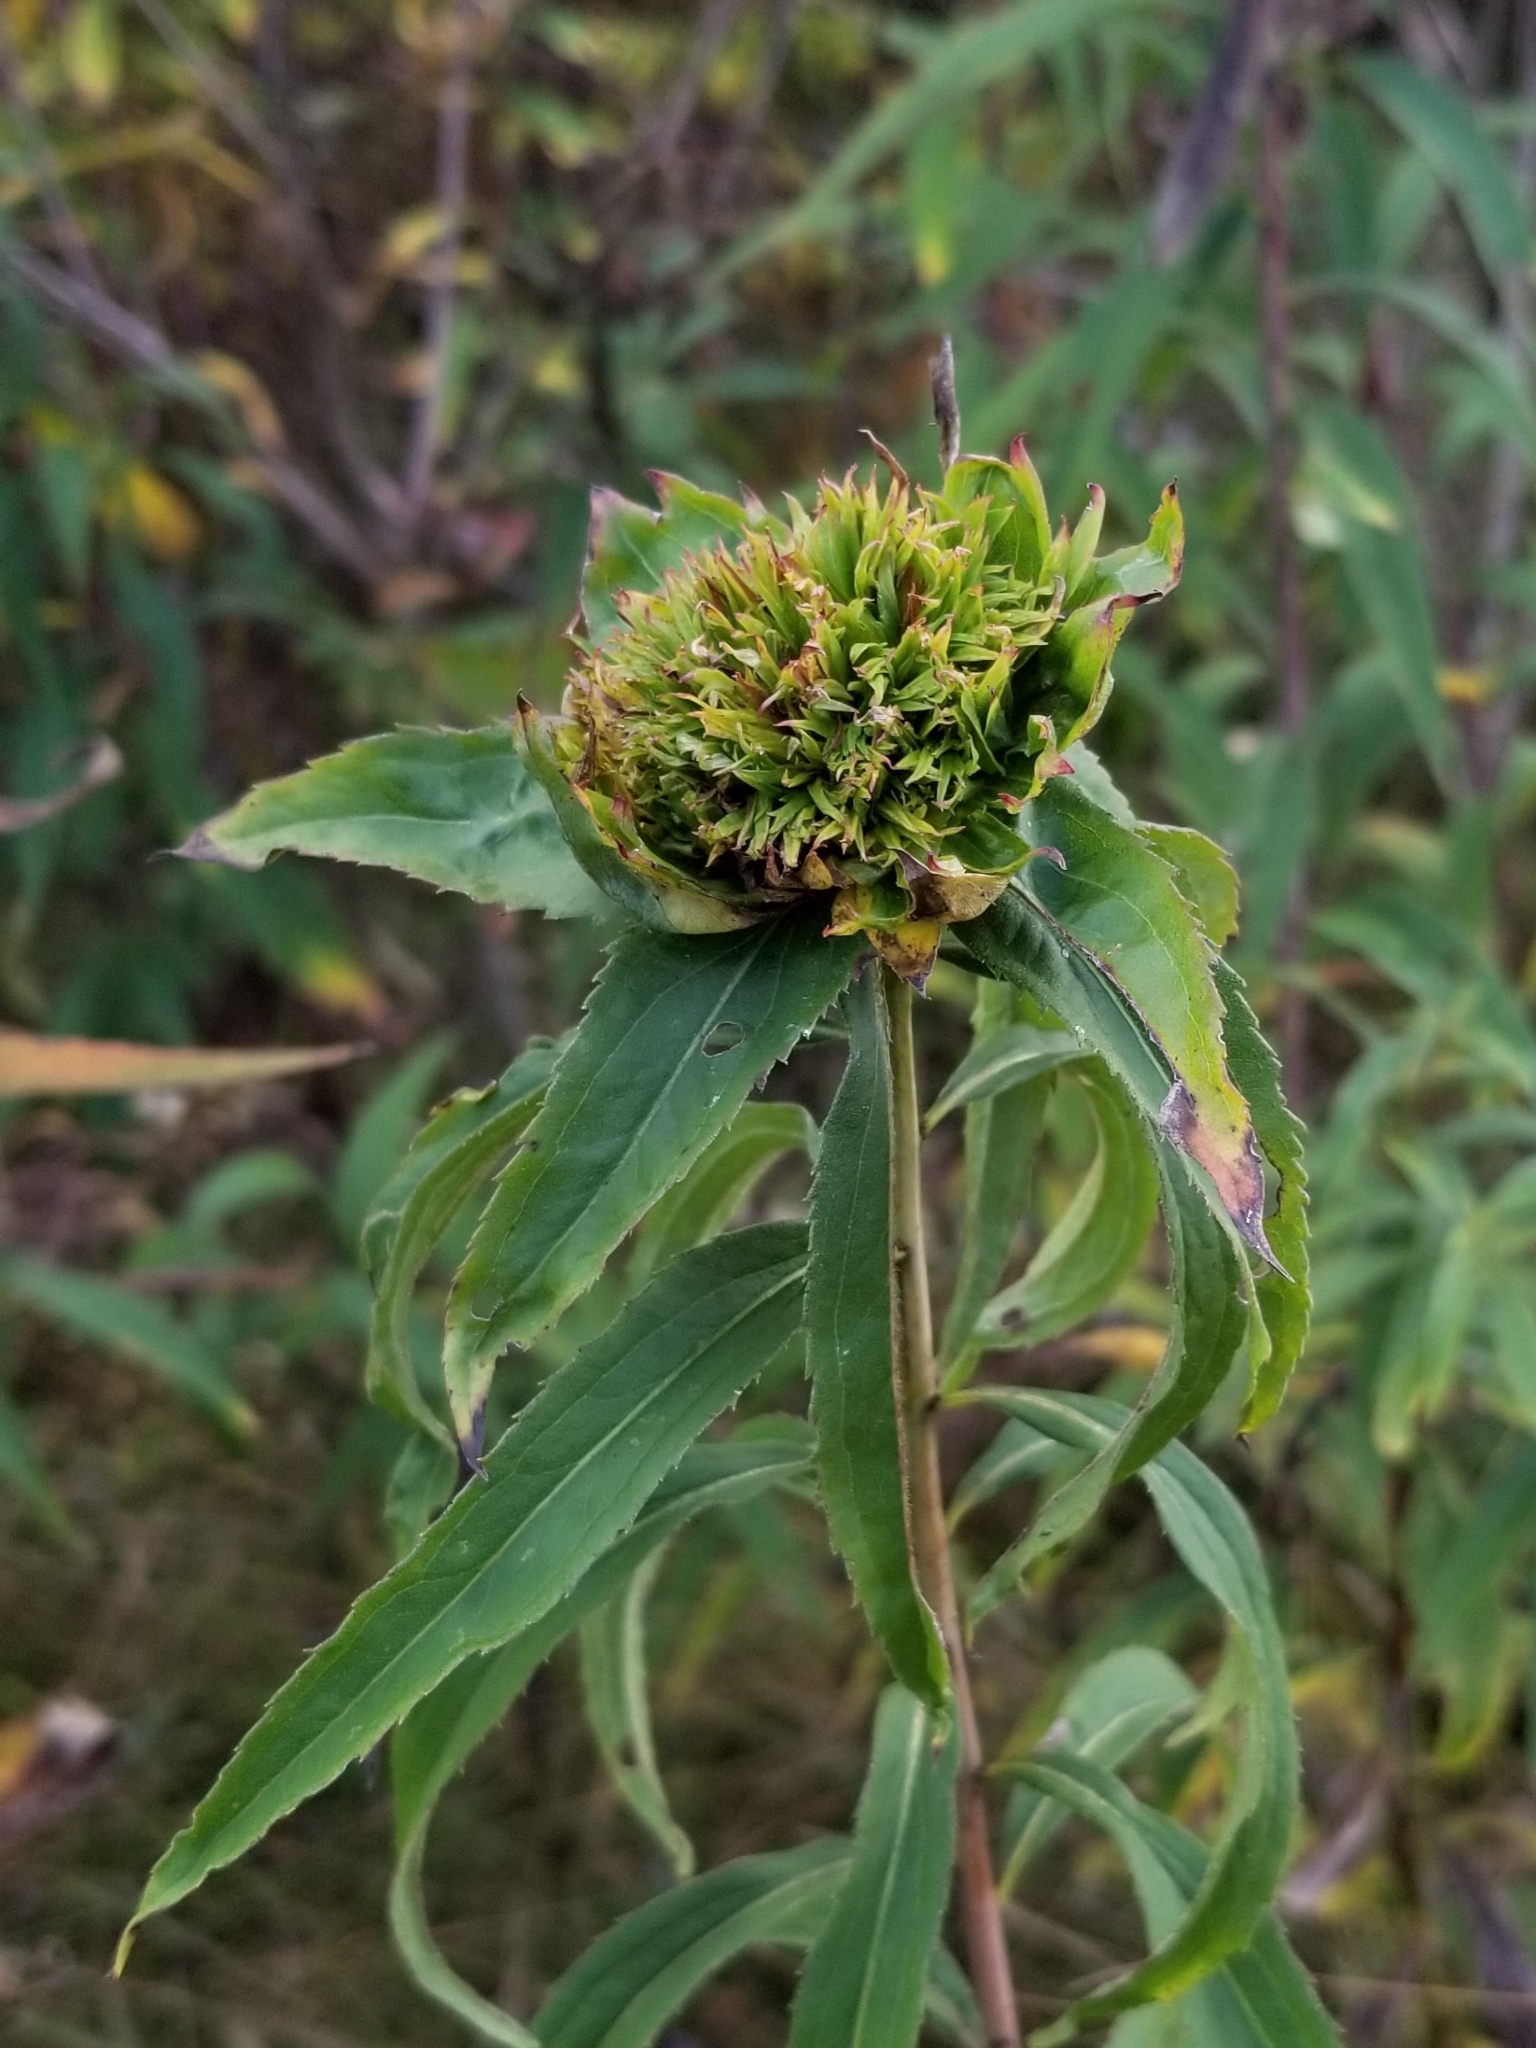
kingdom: Animalia
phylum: Arthropoda
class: Insecta
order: Diptera
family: Cecidomyiidae
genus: Rhopalomyia
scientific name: Rhopalomyia capitata
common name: Giant goldenrod bunch gall midge
